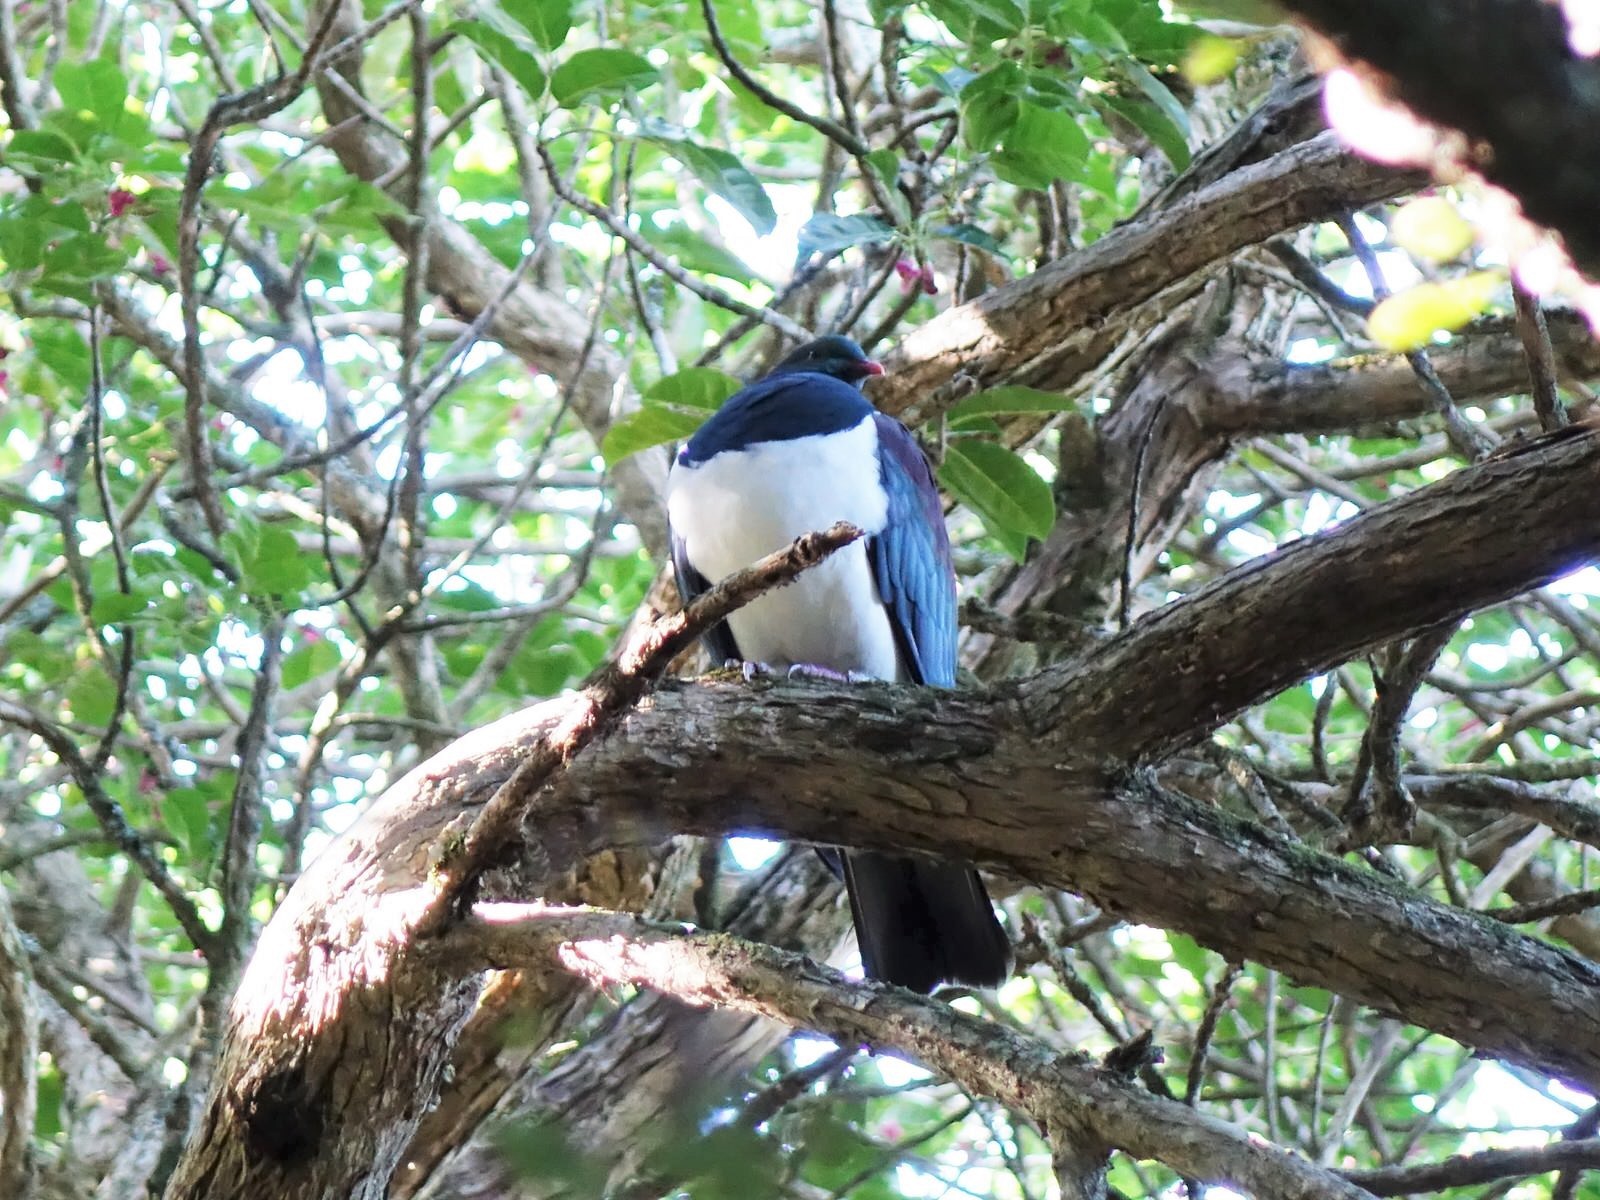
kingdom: Animalia
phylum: Chordata
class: Aves
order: Columbiformes
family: Columbidae
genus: Hemiphaga
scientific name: Hemiphaga novaeseelandiae
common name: New zealand pigeon
